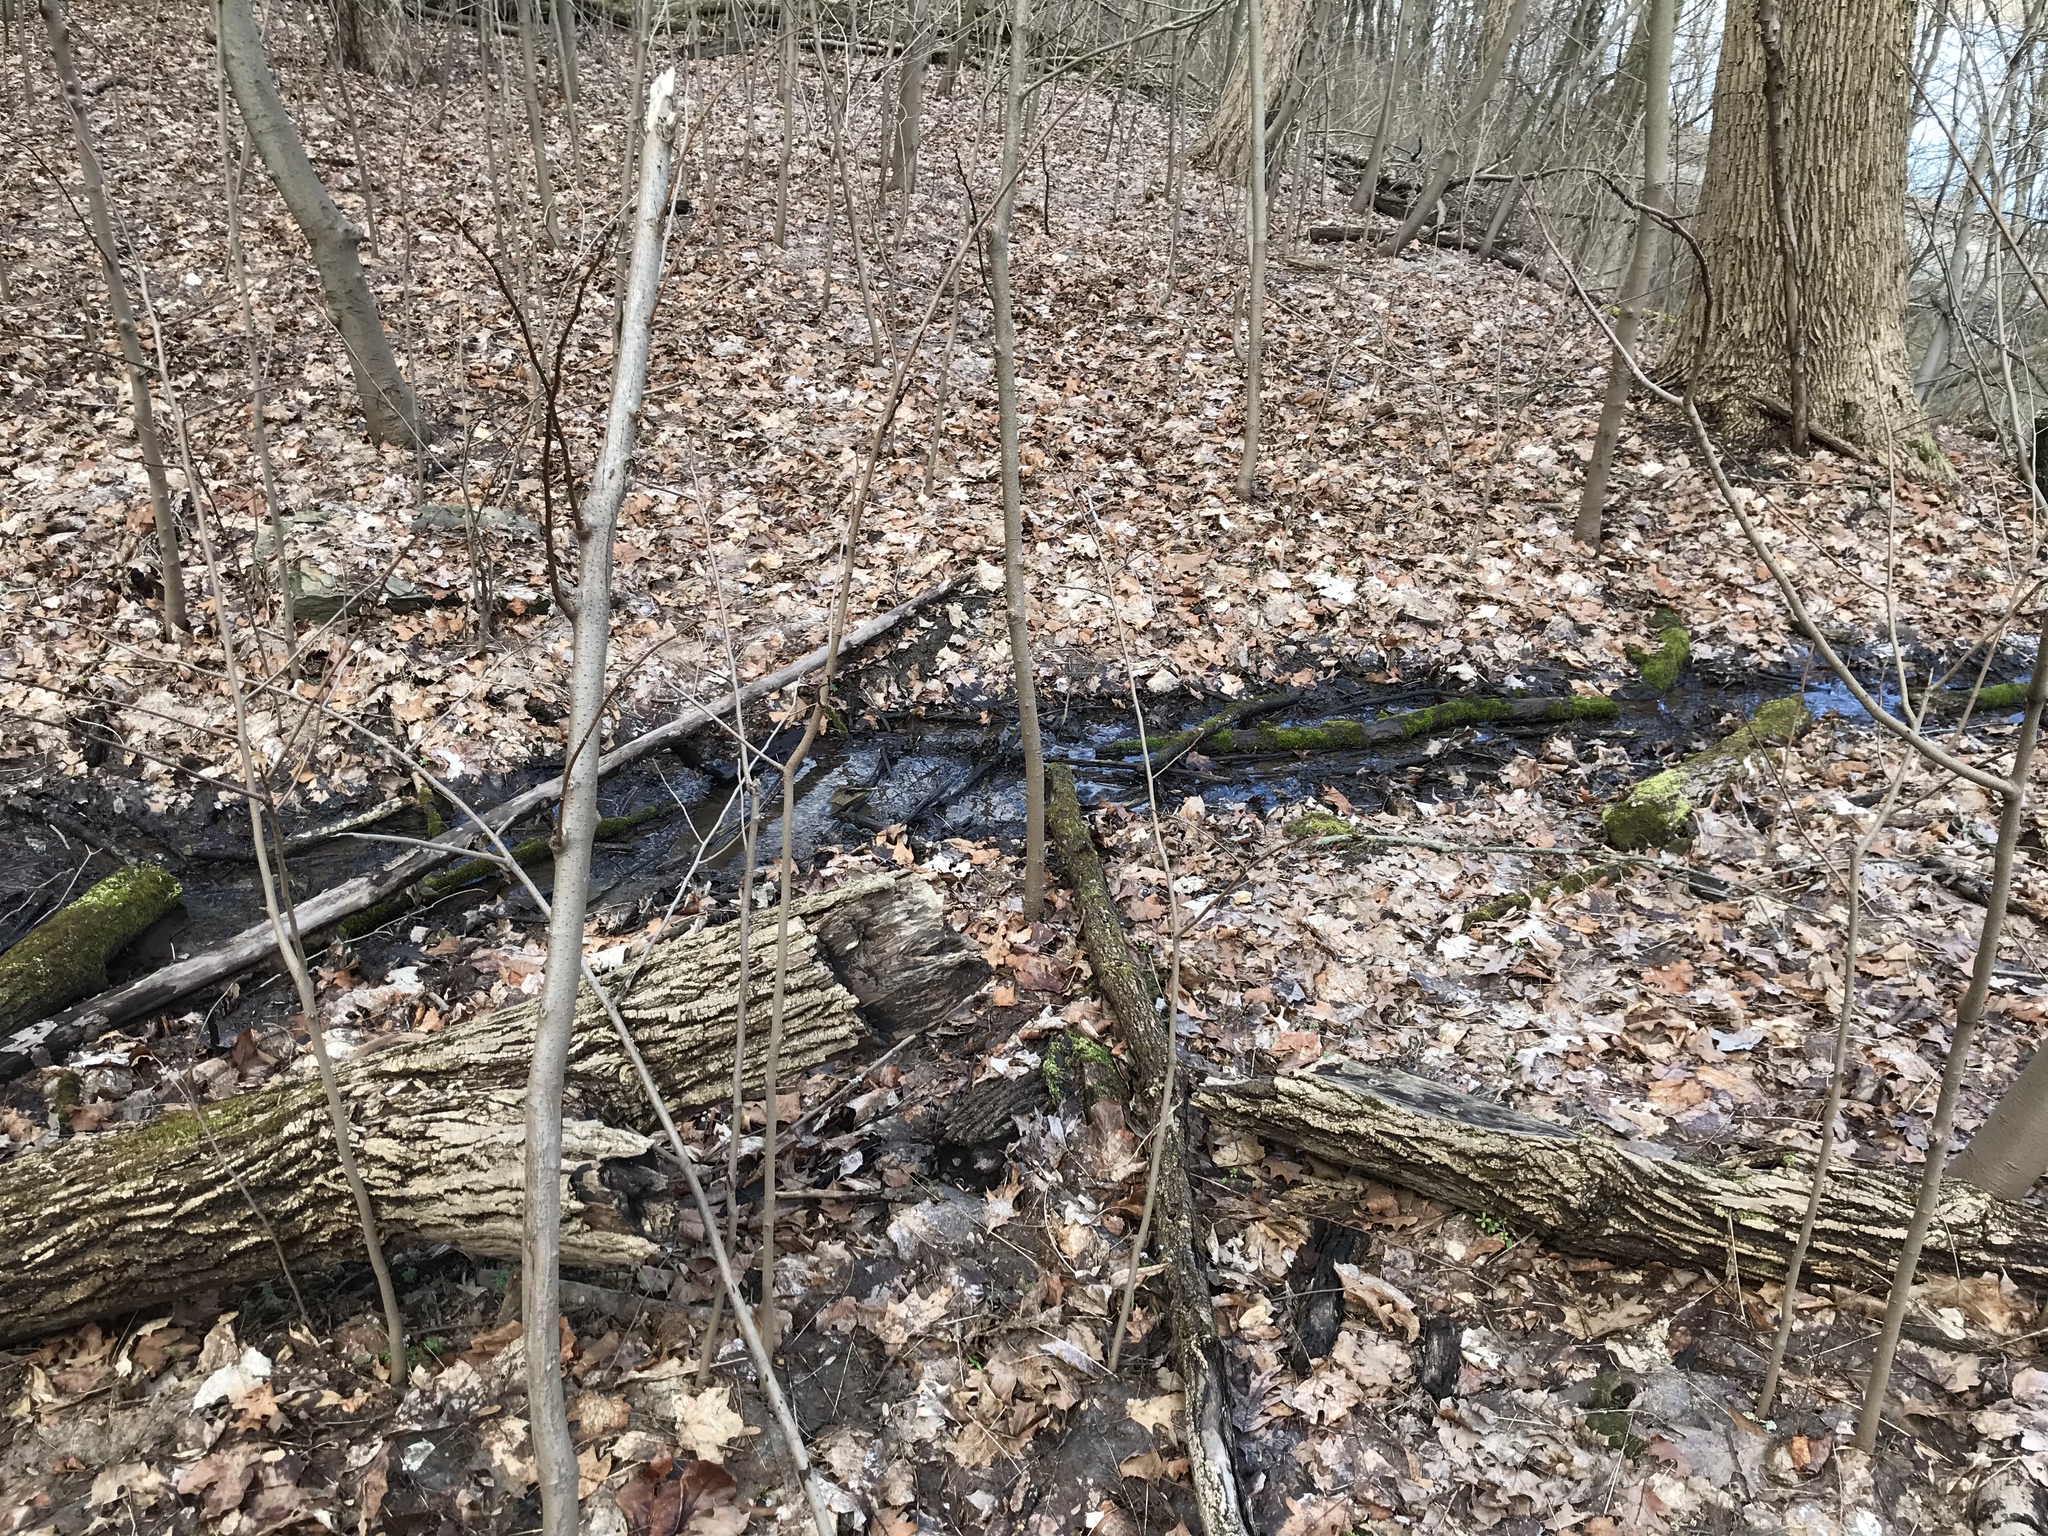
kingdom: Plantae
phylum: Tracheophyta
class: Magnoliopsida
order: Apiales
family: Apiaceae
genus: Erigenia
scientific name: Erigenia bulbosa
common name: Pepper-and-salt
